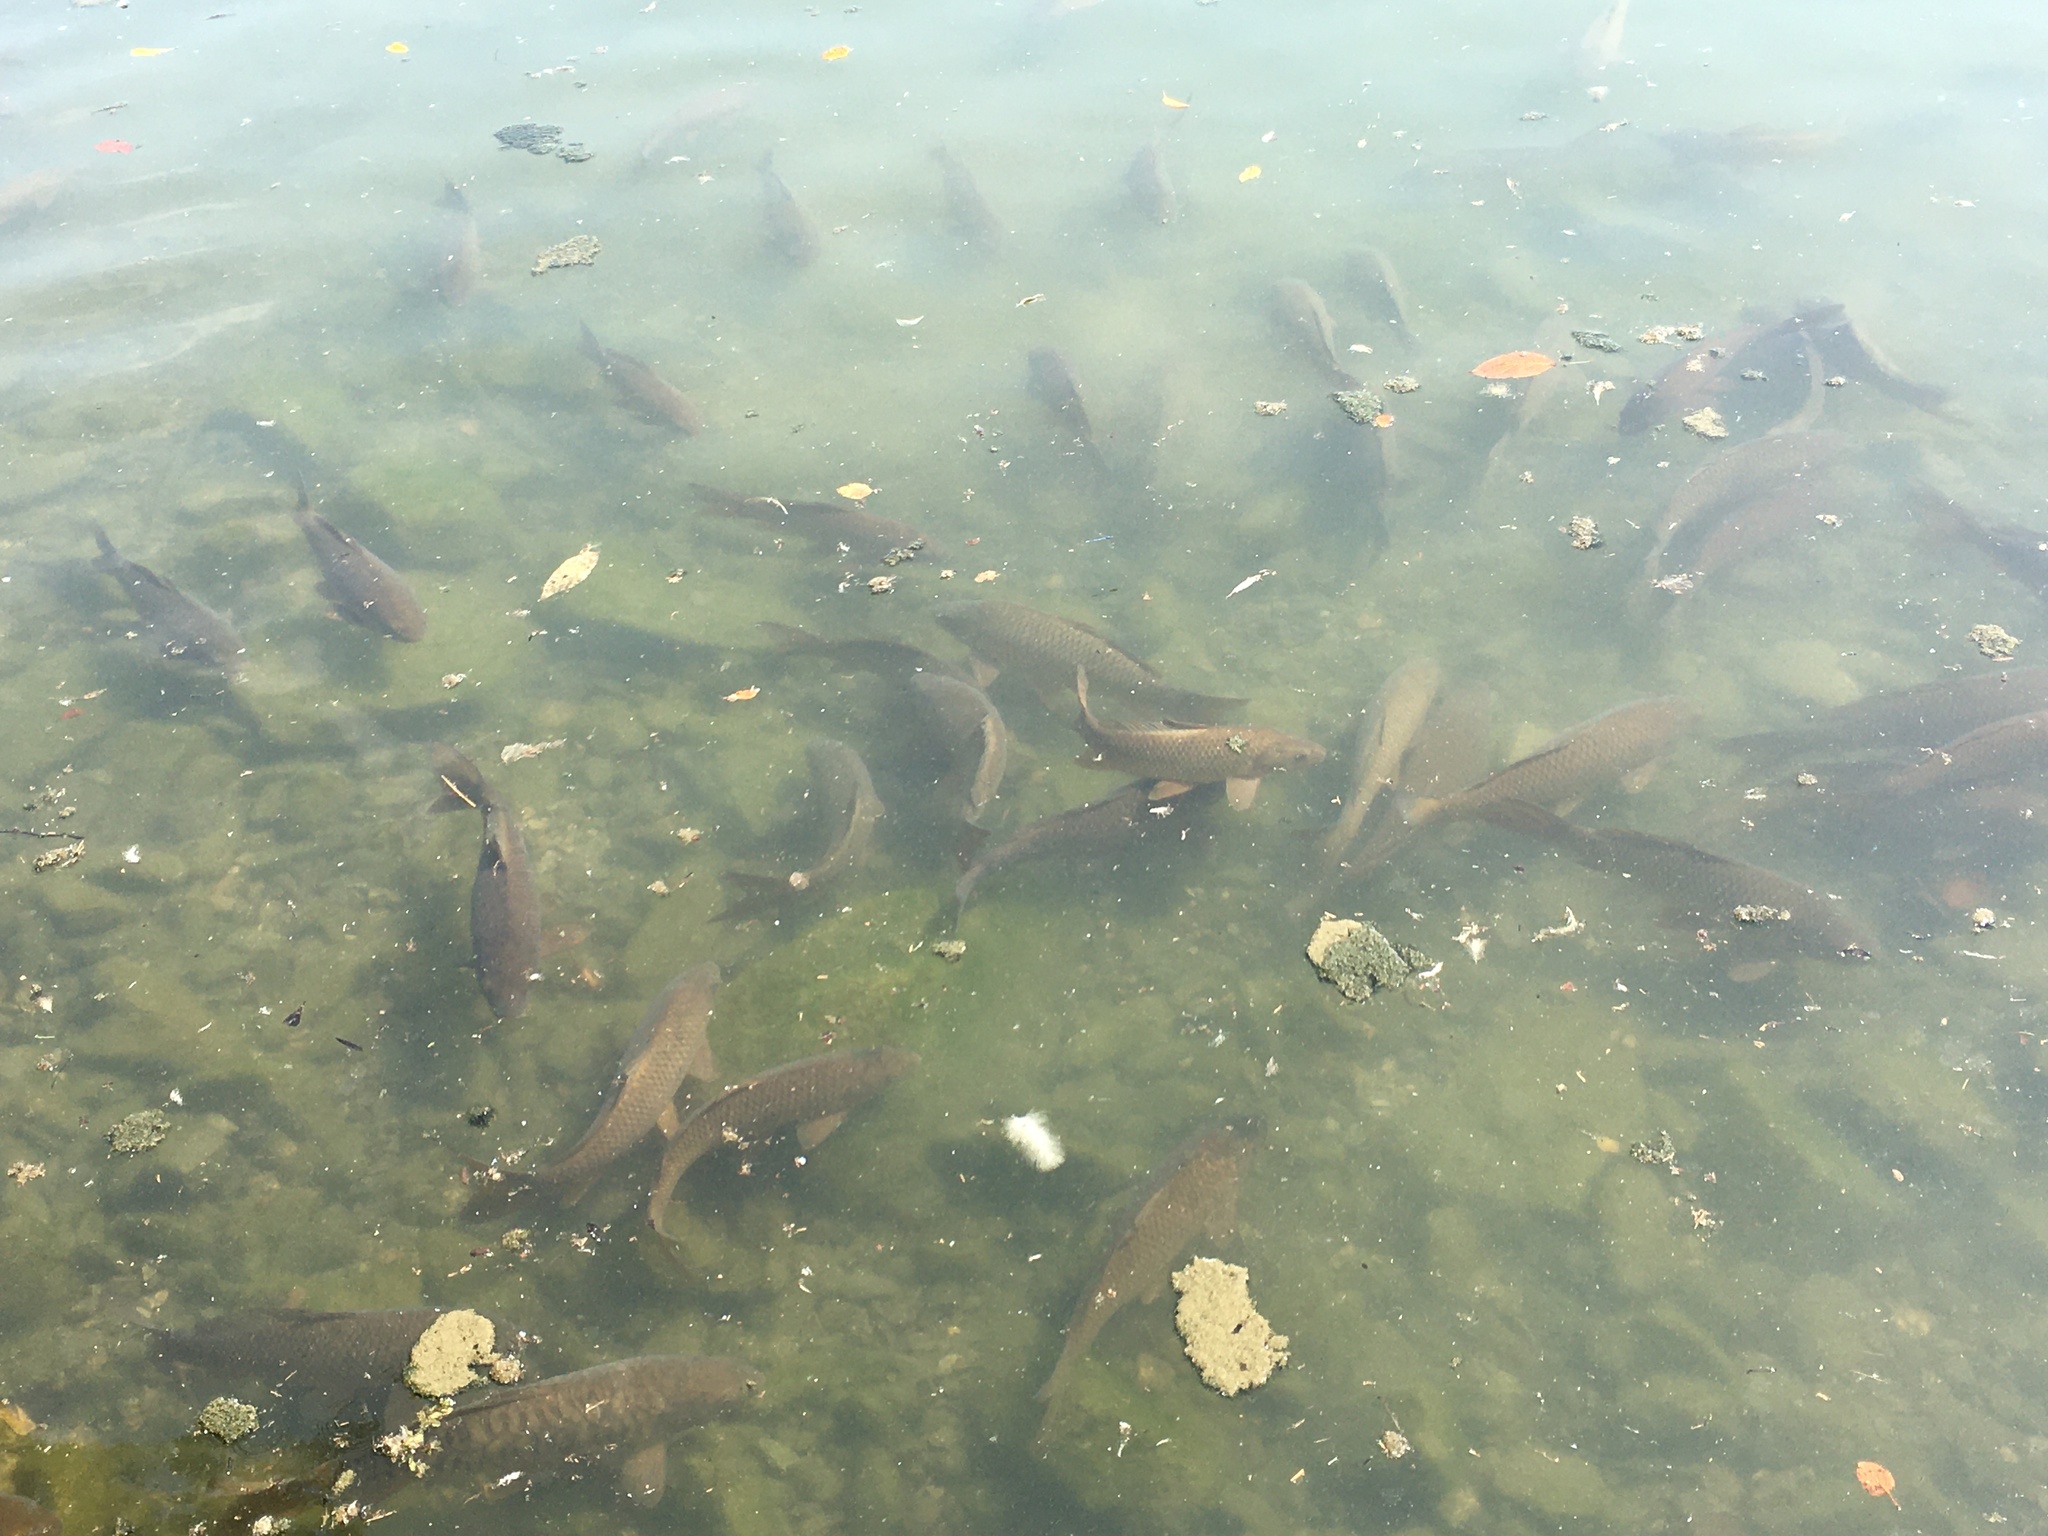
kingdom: Animalia
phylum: Chordata
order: Cypriniformes
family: Cyprinidae
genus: Cyprinus
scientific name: Cyprinus carpio
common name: Common carp
